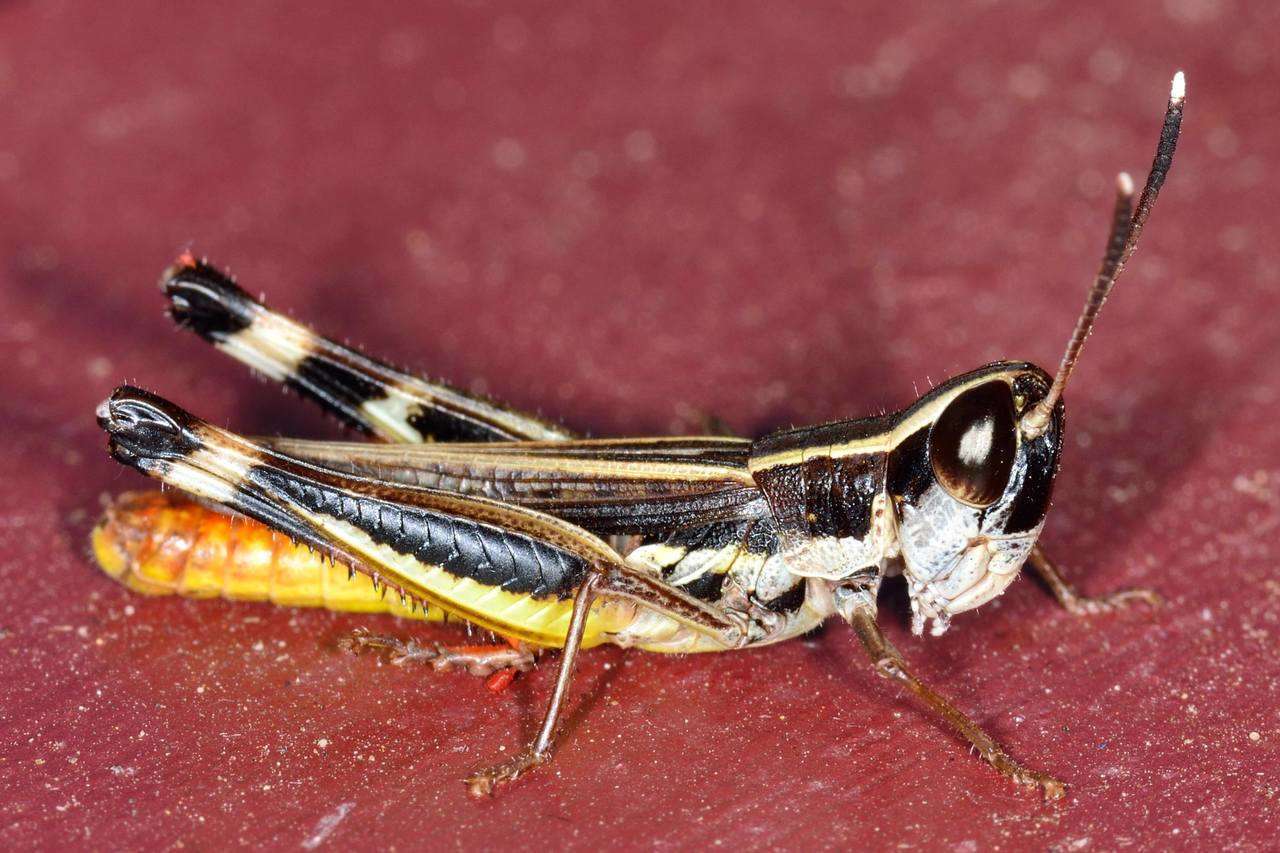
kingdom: Animalia
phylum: Arthropoda
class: Insecta
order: Orthoptera
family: Acrididae
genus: Macrotona
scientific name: Macrotona australis
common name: Common macrotona
